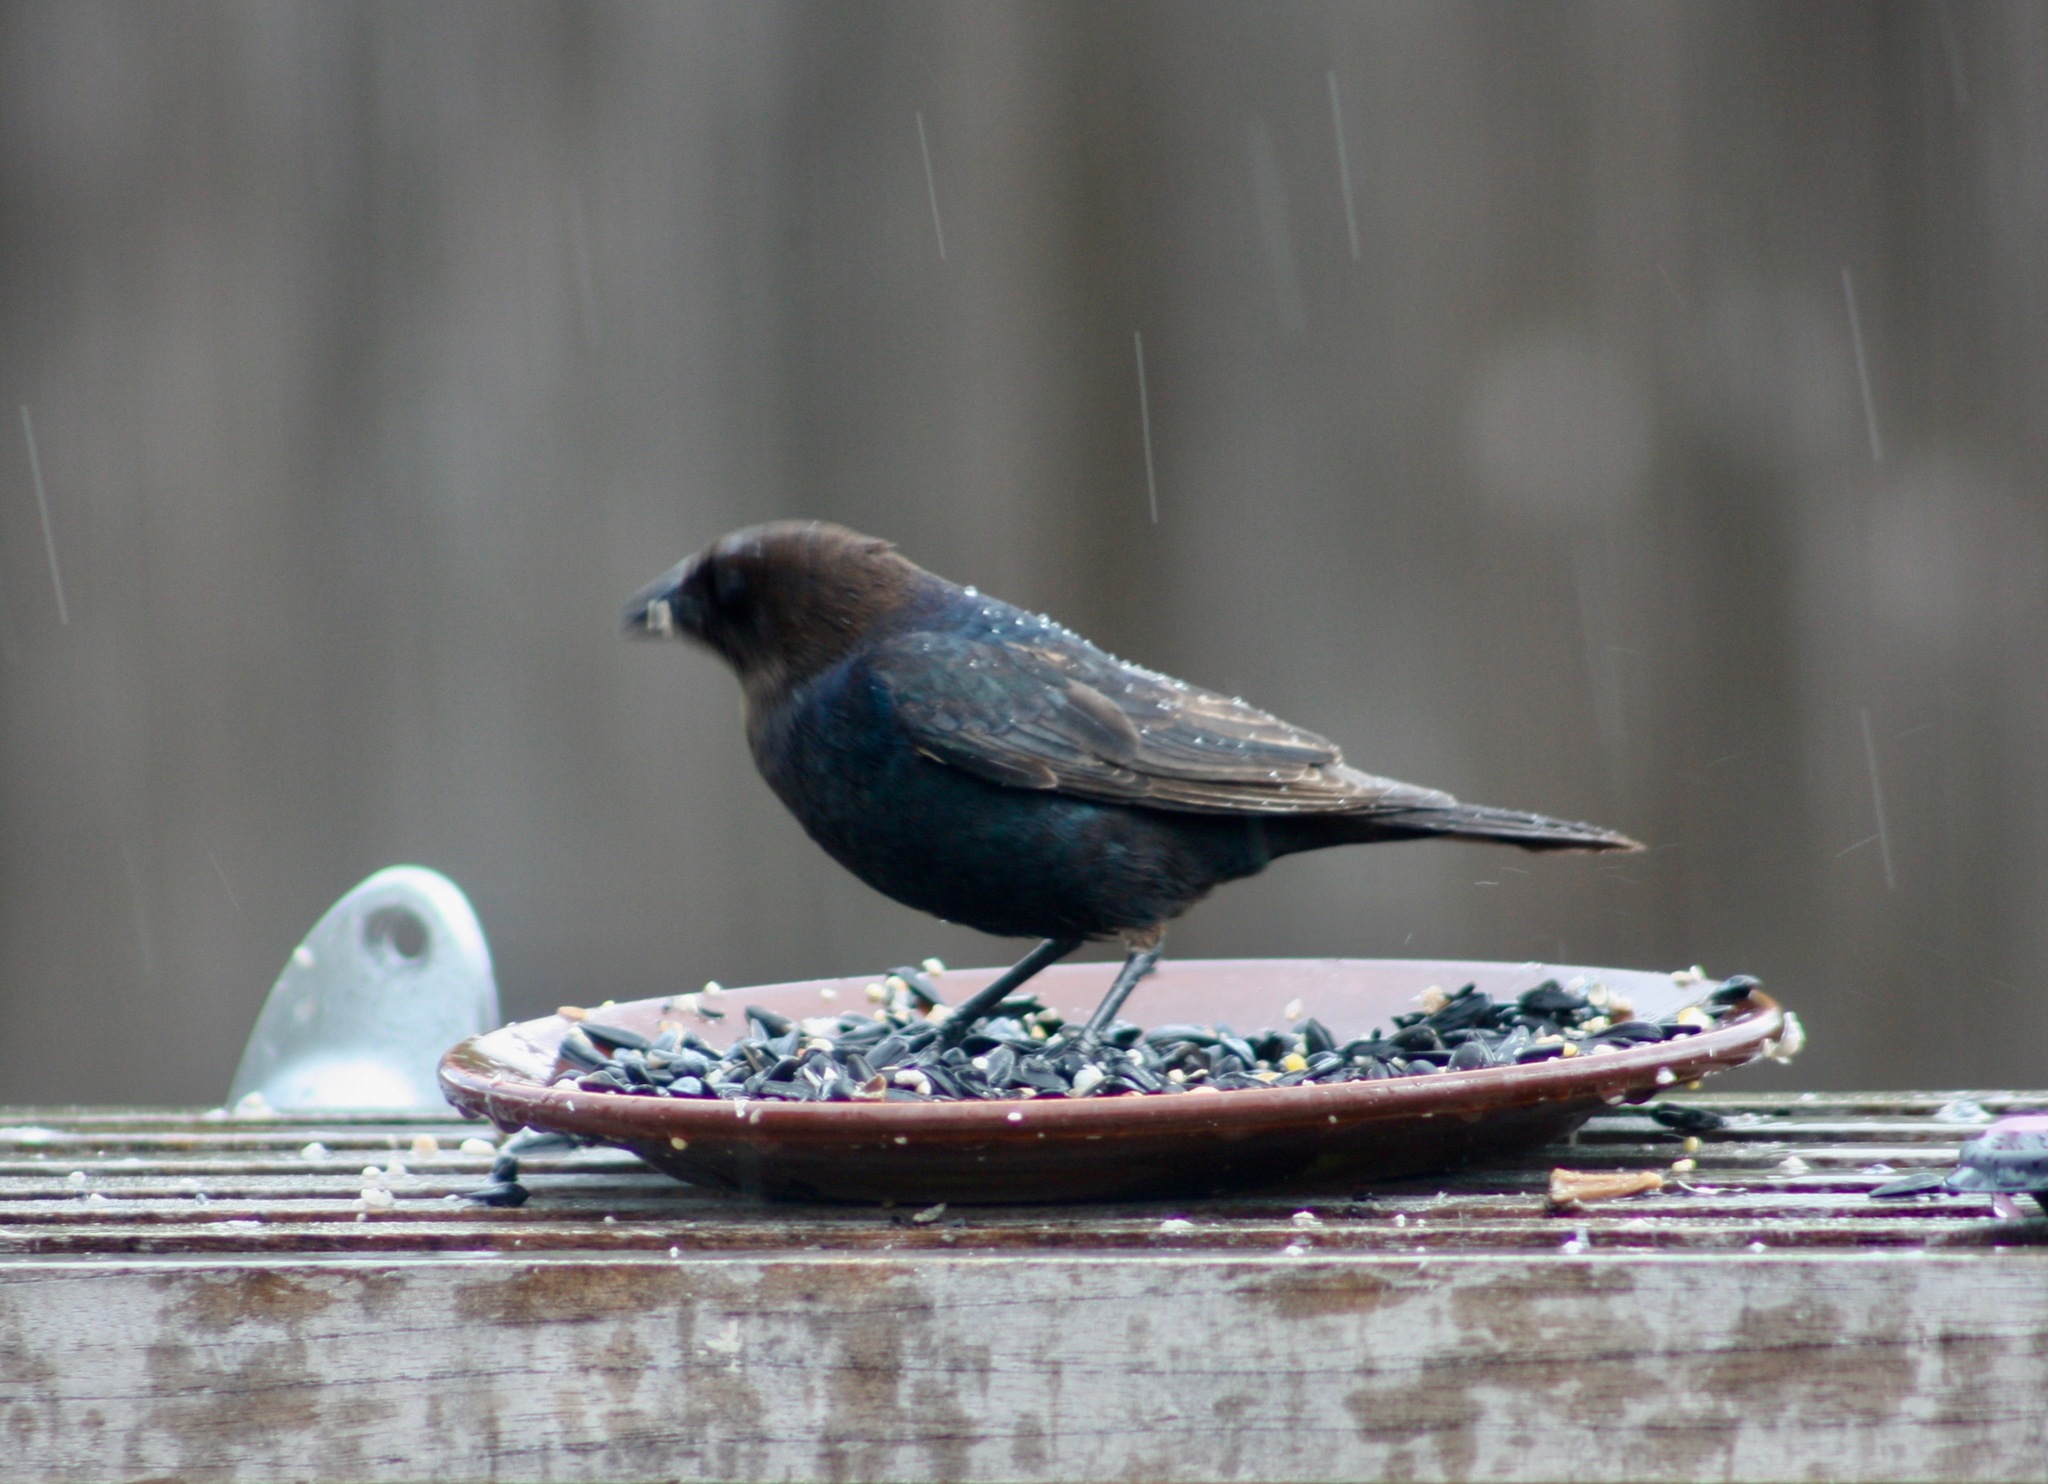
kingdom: Animalia
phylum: Chordata
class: Aves
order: Passeriformes
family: Icteridae
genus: Molothrus
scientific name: Molothrus ater
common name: Brown-headed cowbird
